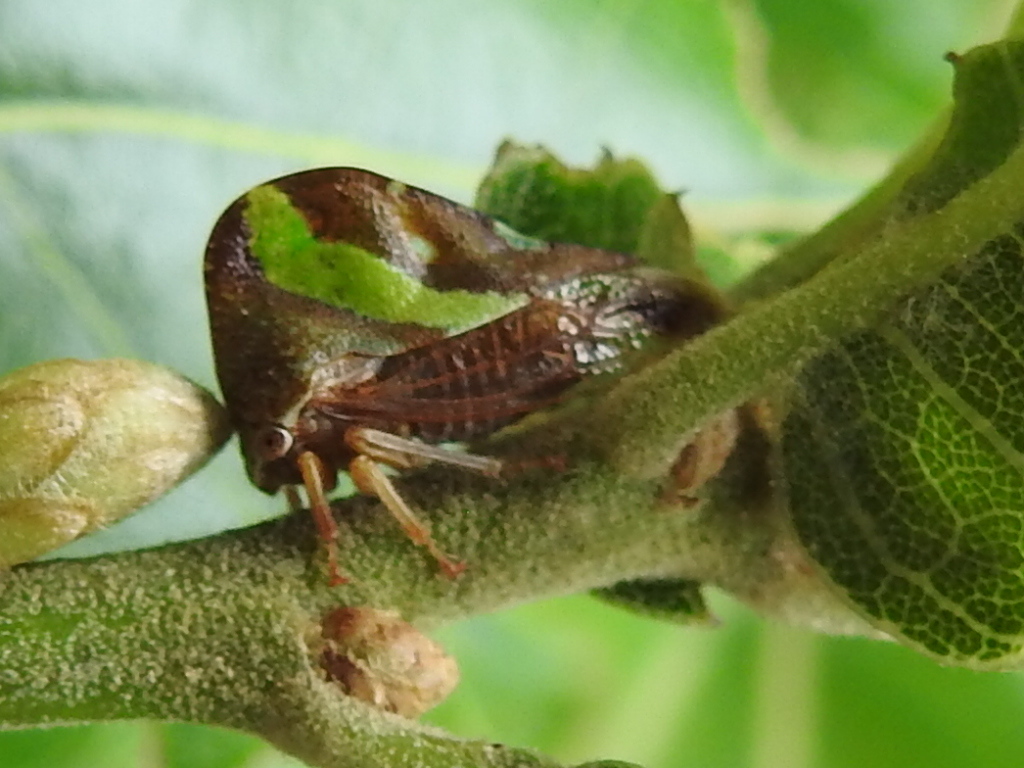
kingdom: Animalia
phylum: Arthropoda
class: Insecta
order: Hemiptera
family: Membracidae
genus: Smilia
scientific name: Smilia camelus
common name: Camel treehopper
